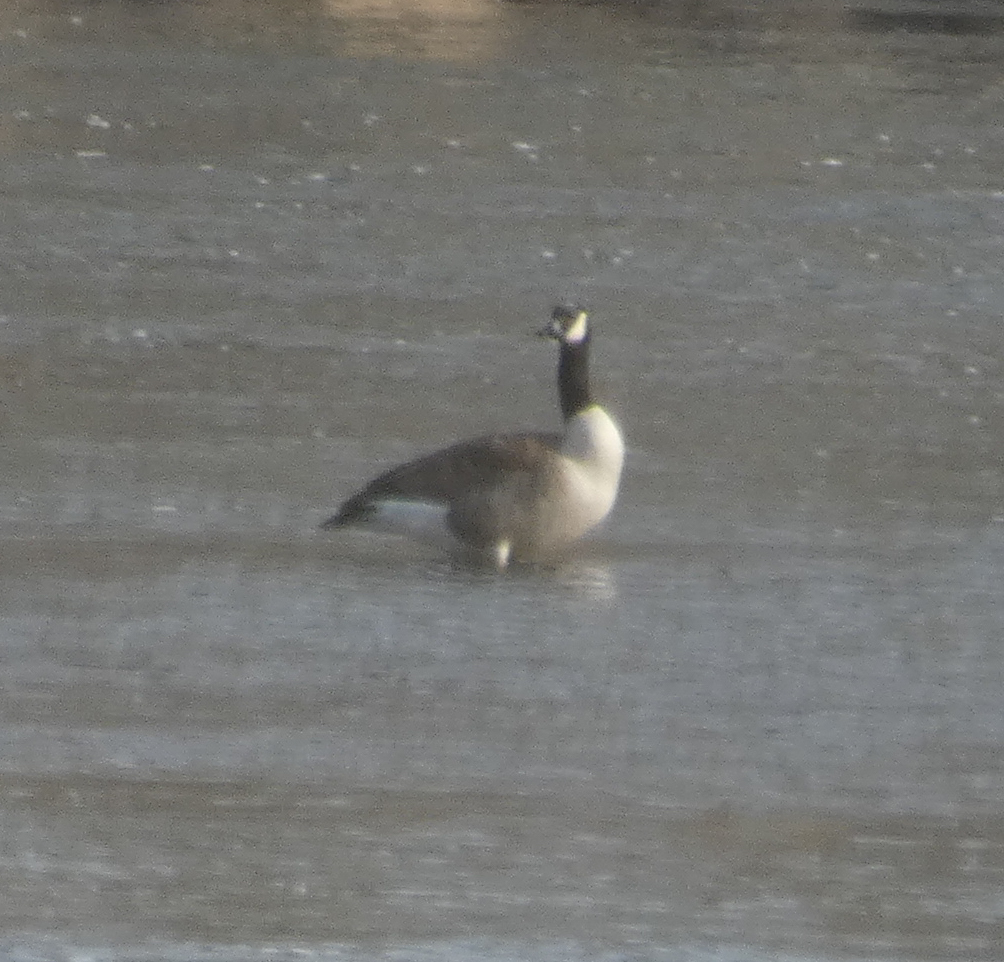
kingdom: Animalia
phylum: Chordata
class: Aves
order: Anseriformes
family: Anatidae
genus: Branta
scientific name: Branta canadensis
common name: Canada goose
